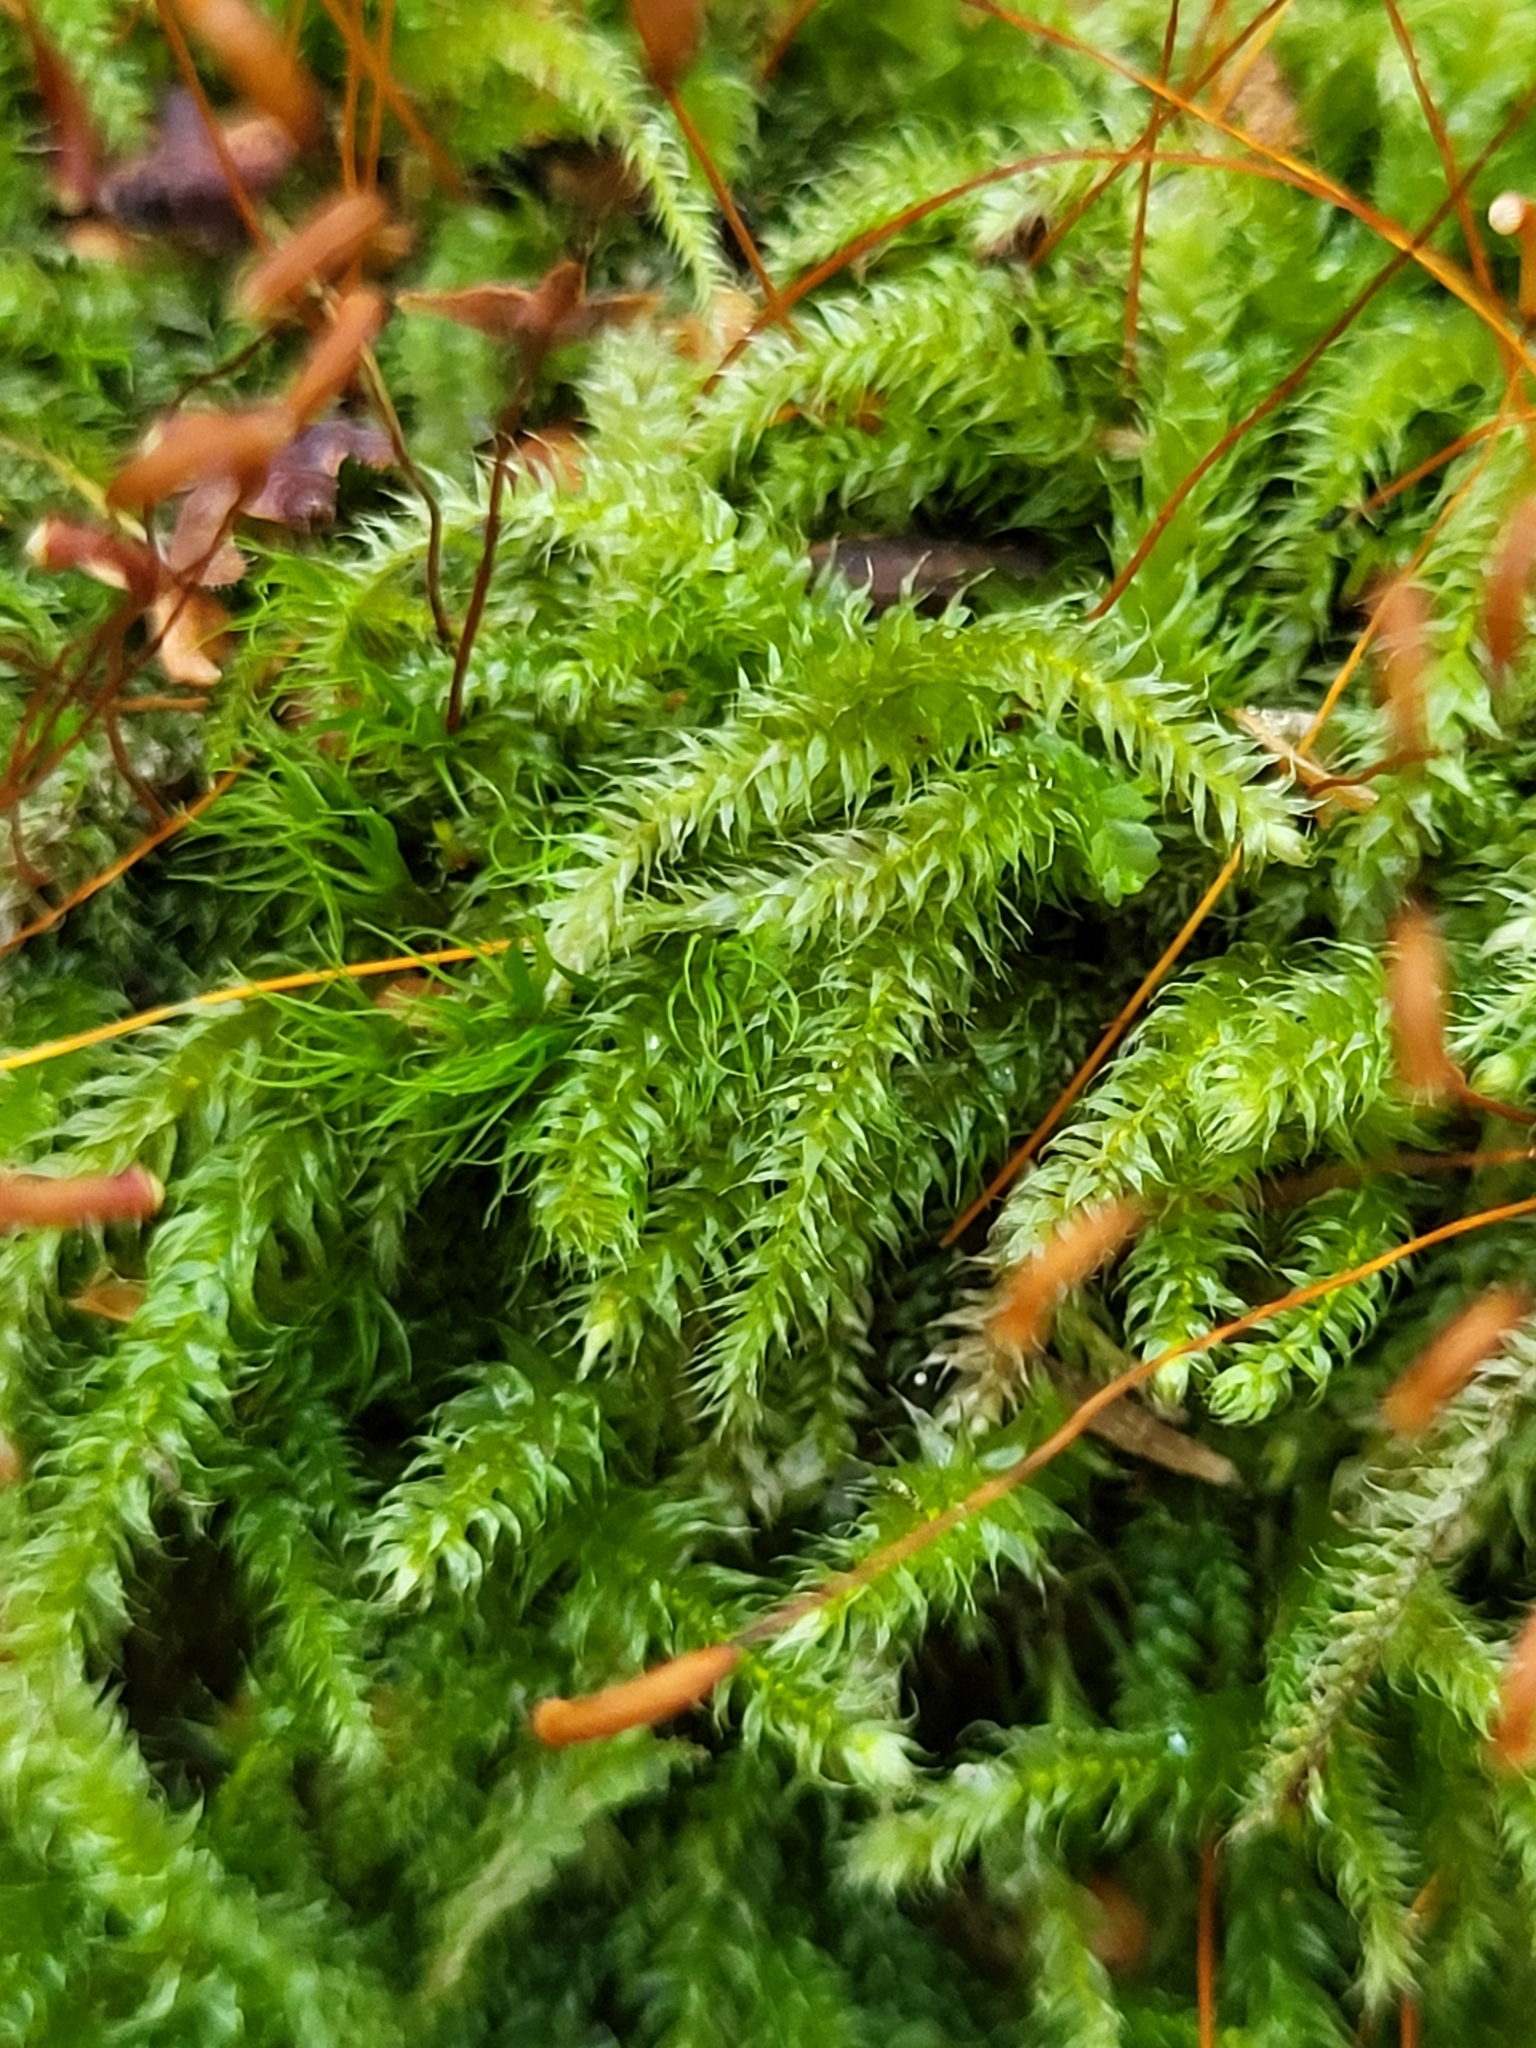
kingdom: Plantae
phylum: Bryophyta
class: Bryopsida
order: Hypnales
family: Plagiotheciaceae
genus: Herzogiella
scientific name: Herzogiella seligeri
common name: Silesian feather-moss
